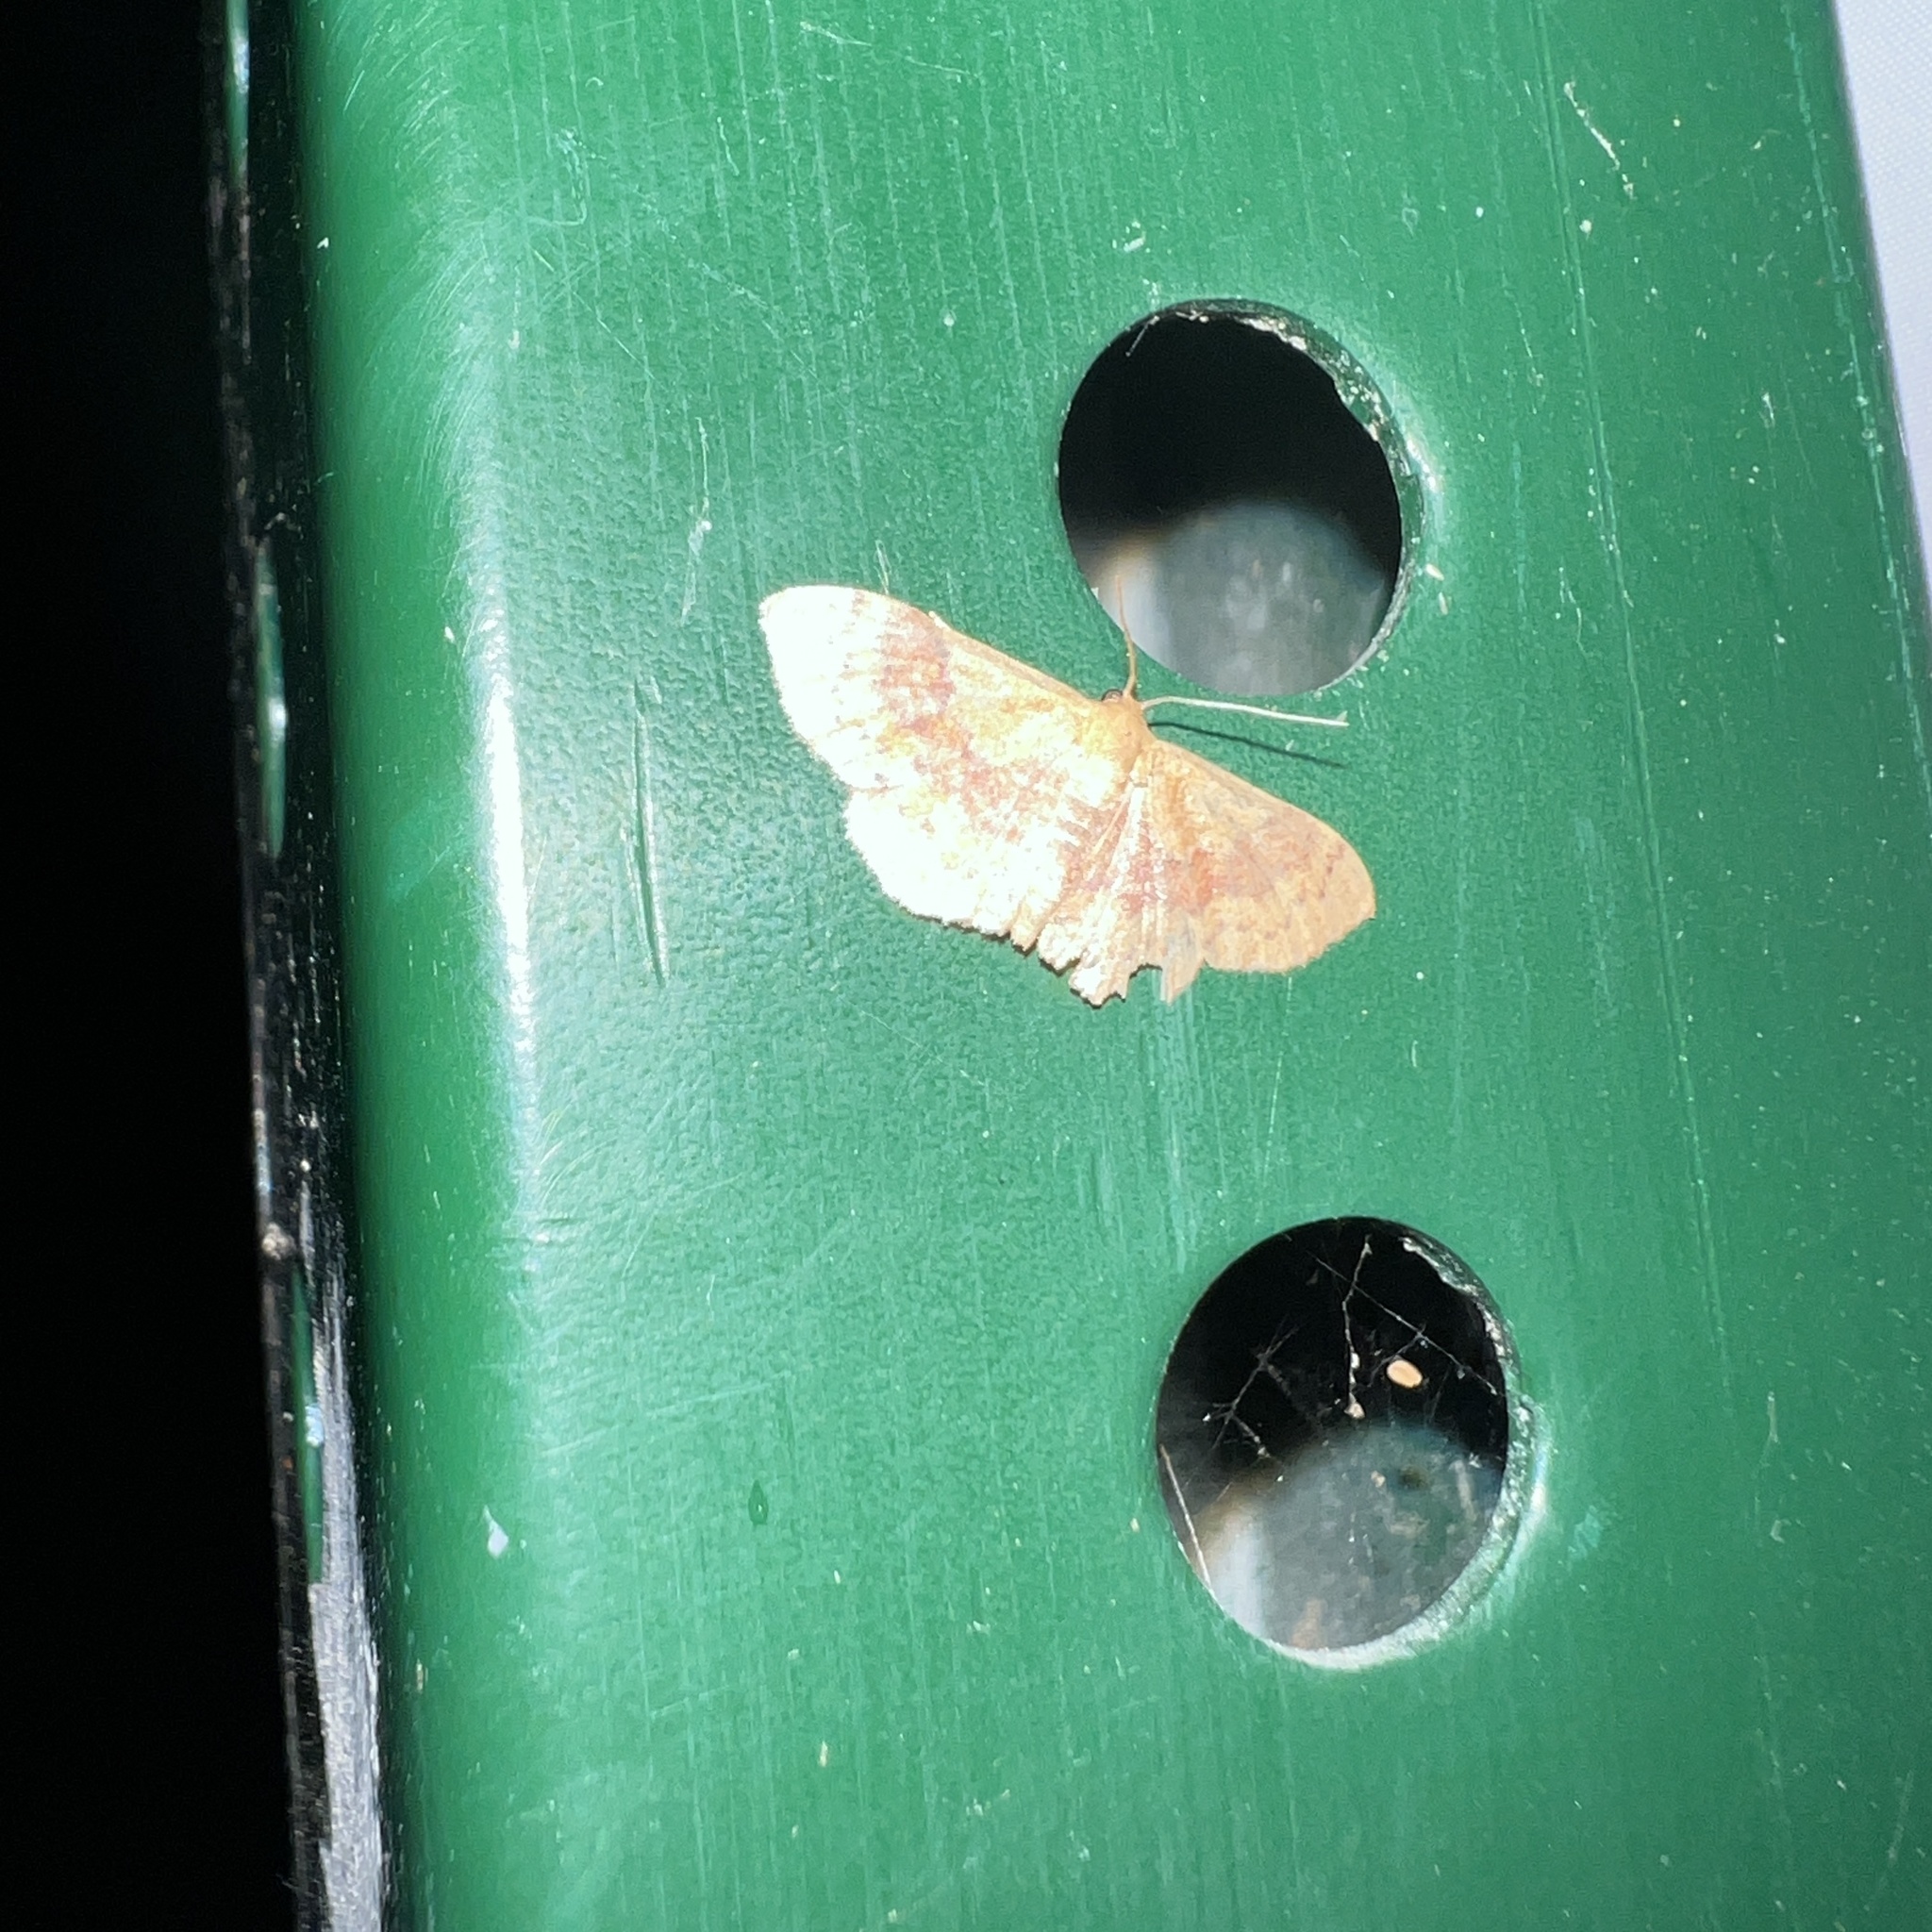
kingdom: Animalia
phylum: Arthropoda
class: Insecta
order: Lepidoptera
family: Geometridae
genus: Leptostales
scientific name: Leptostales ferruminaria
